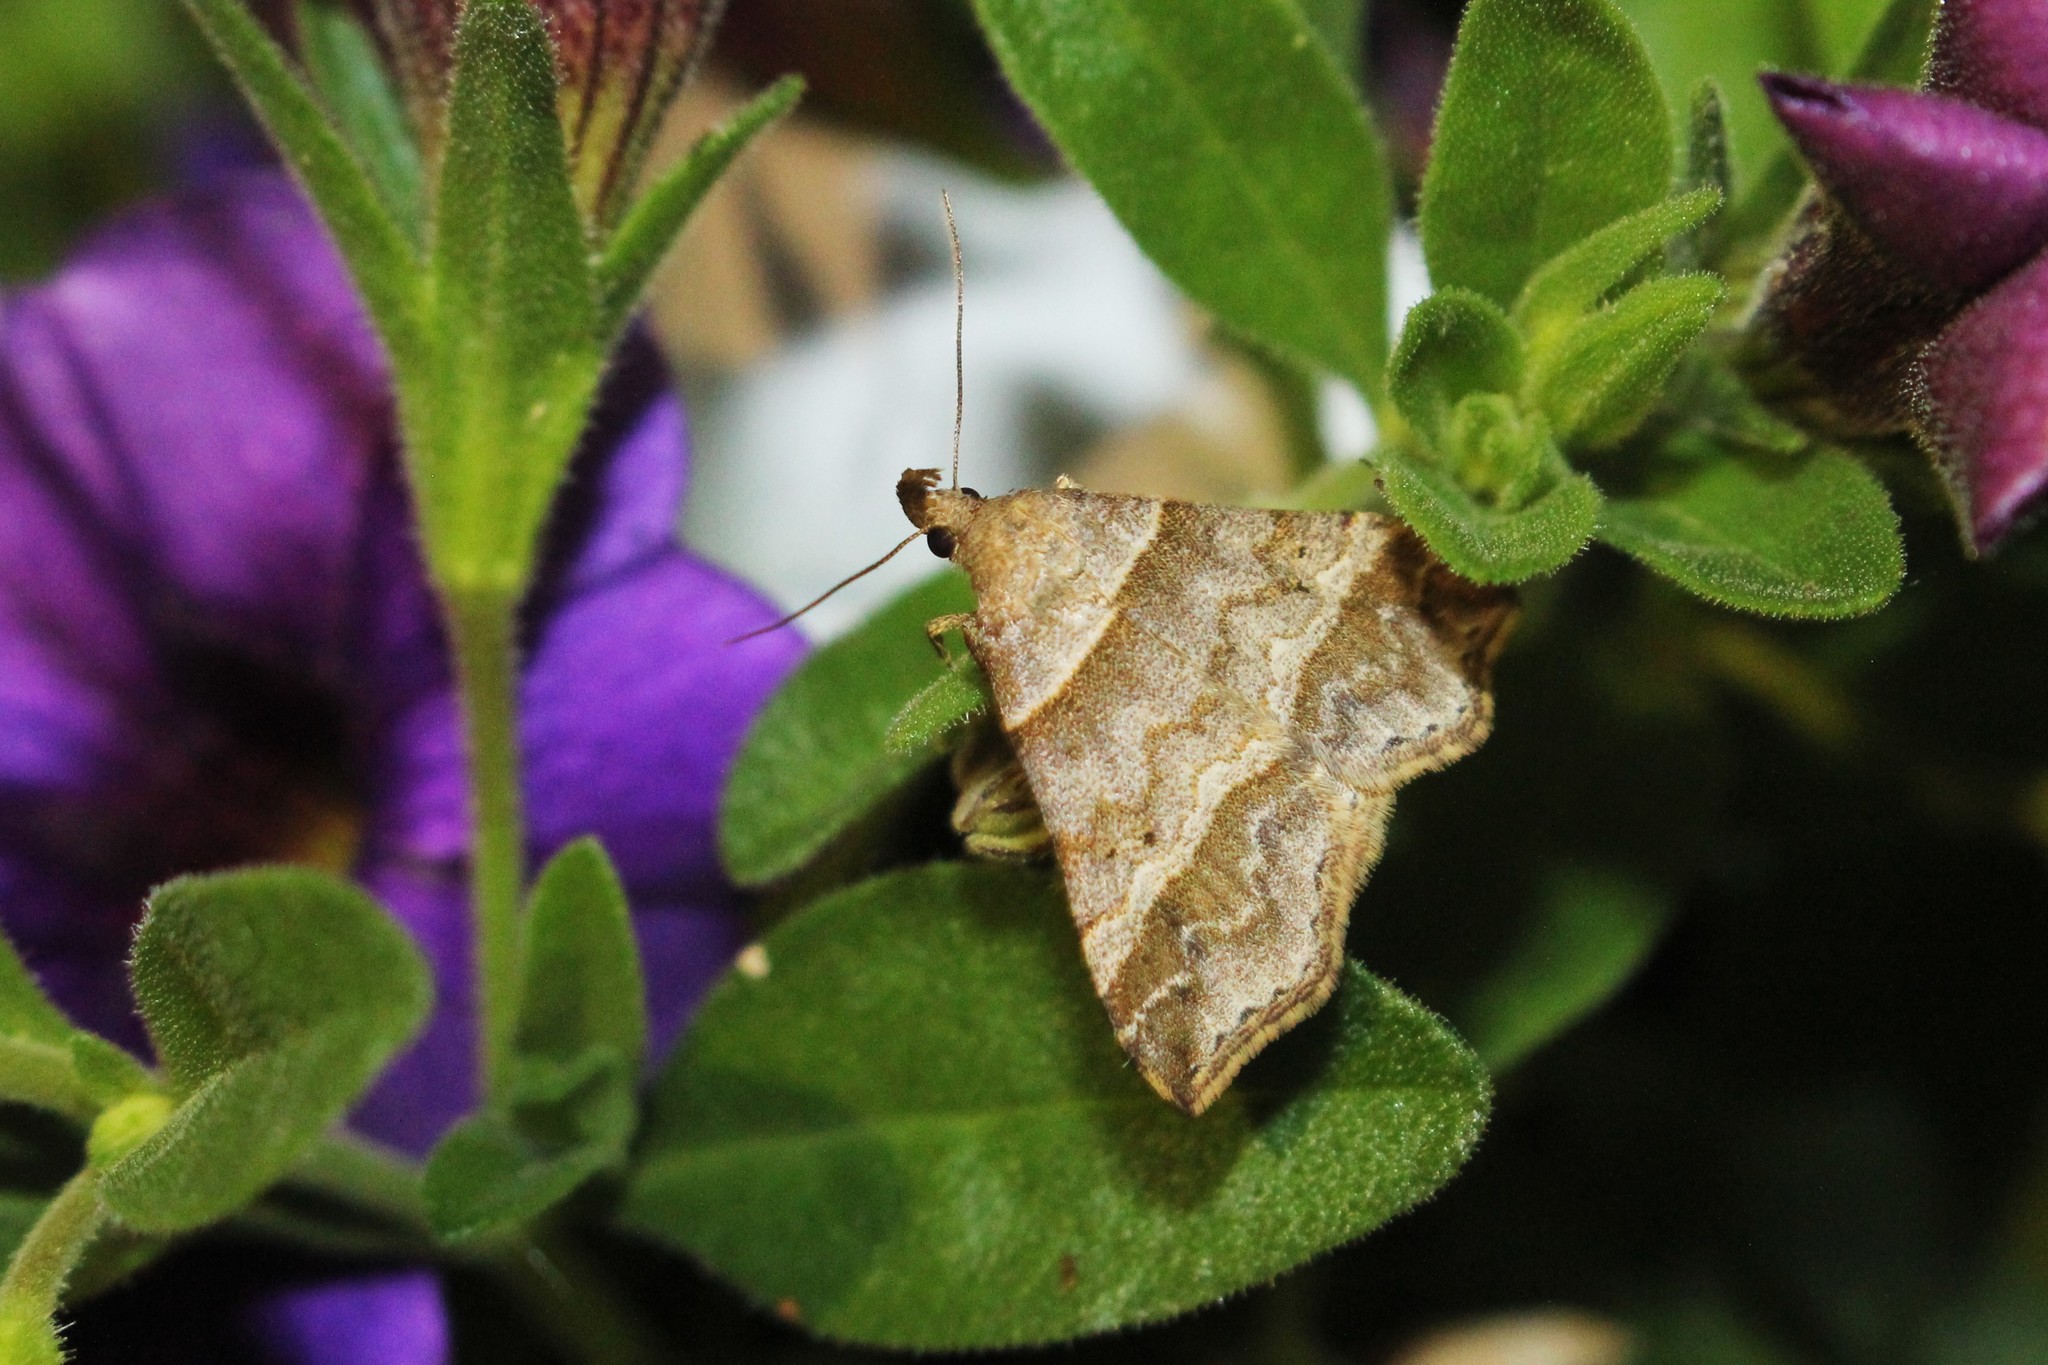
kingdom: Animalia
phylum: Arthropoda
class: Insecta
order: Lepidoptera
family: Erebidae
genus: Phaeolita
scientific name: Phaeolita pyramusalis
